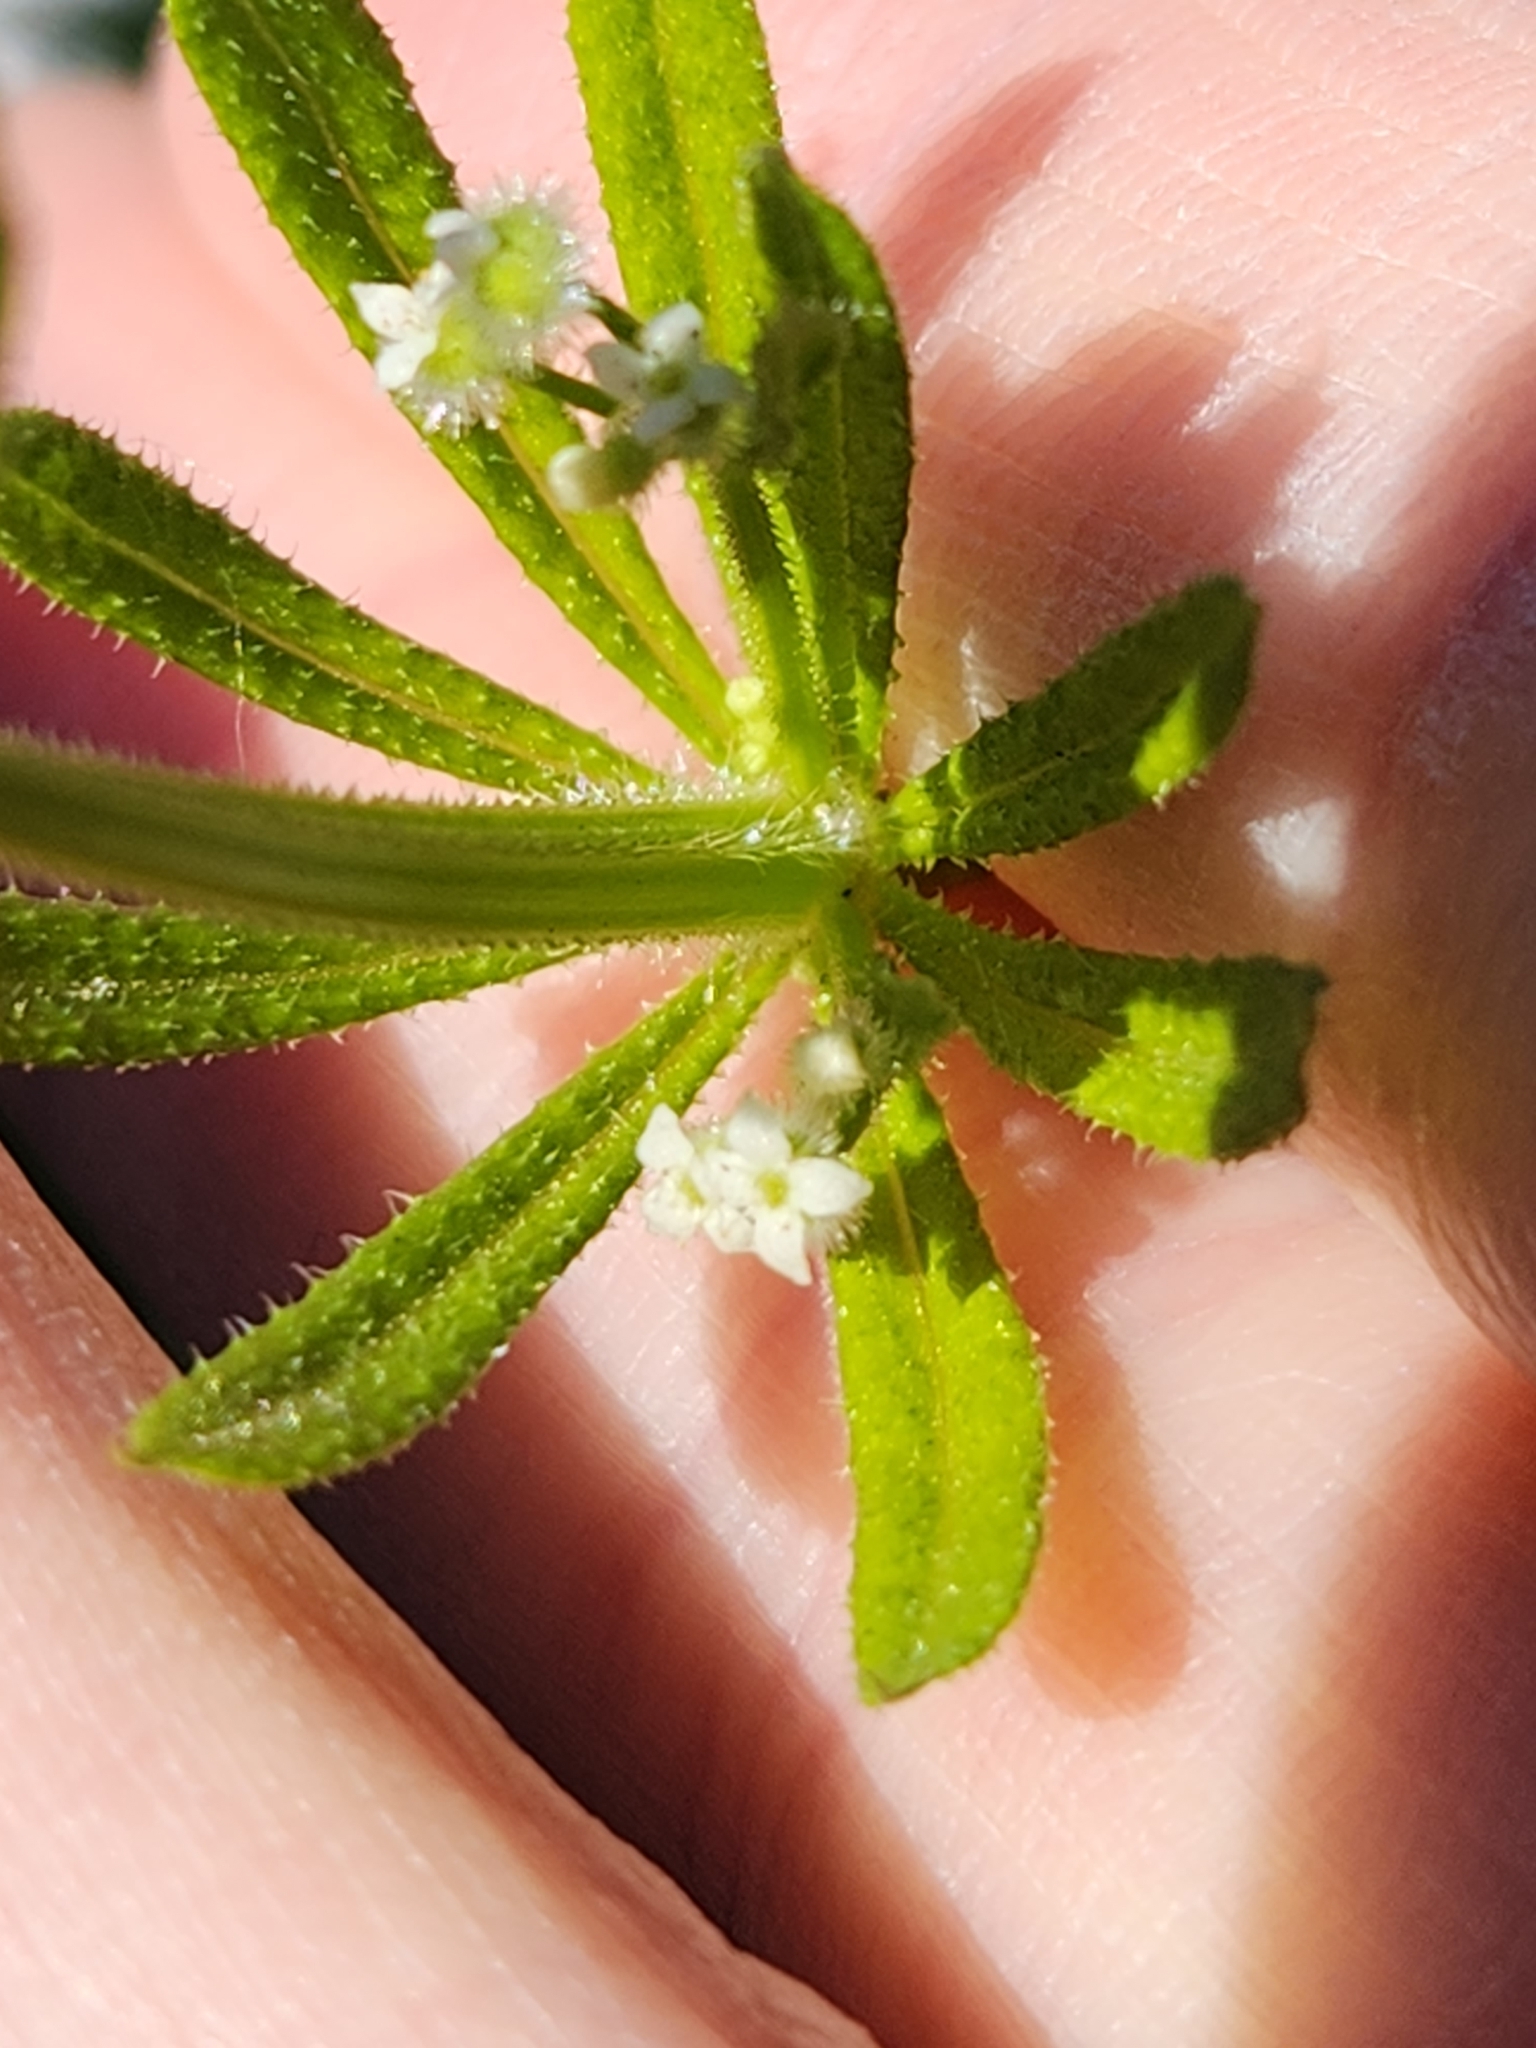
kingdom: Plantae
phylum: Tracheophyta
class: Magnoliopsida
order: Gentianales
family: Rubiaceae
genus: Galium
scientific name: Galium aparine
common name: Cleavers
